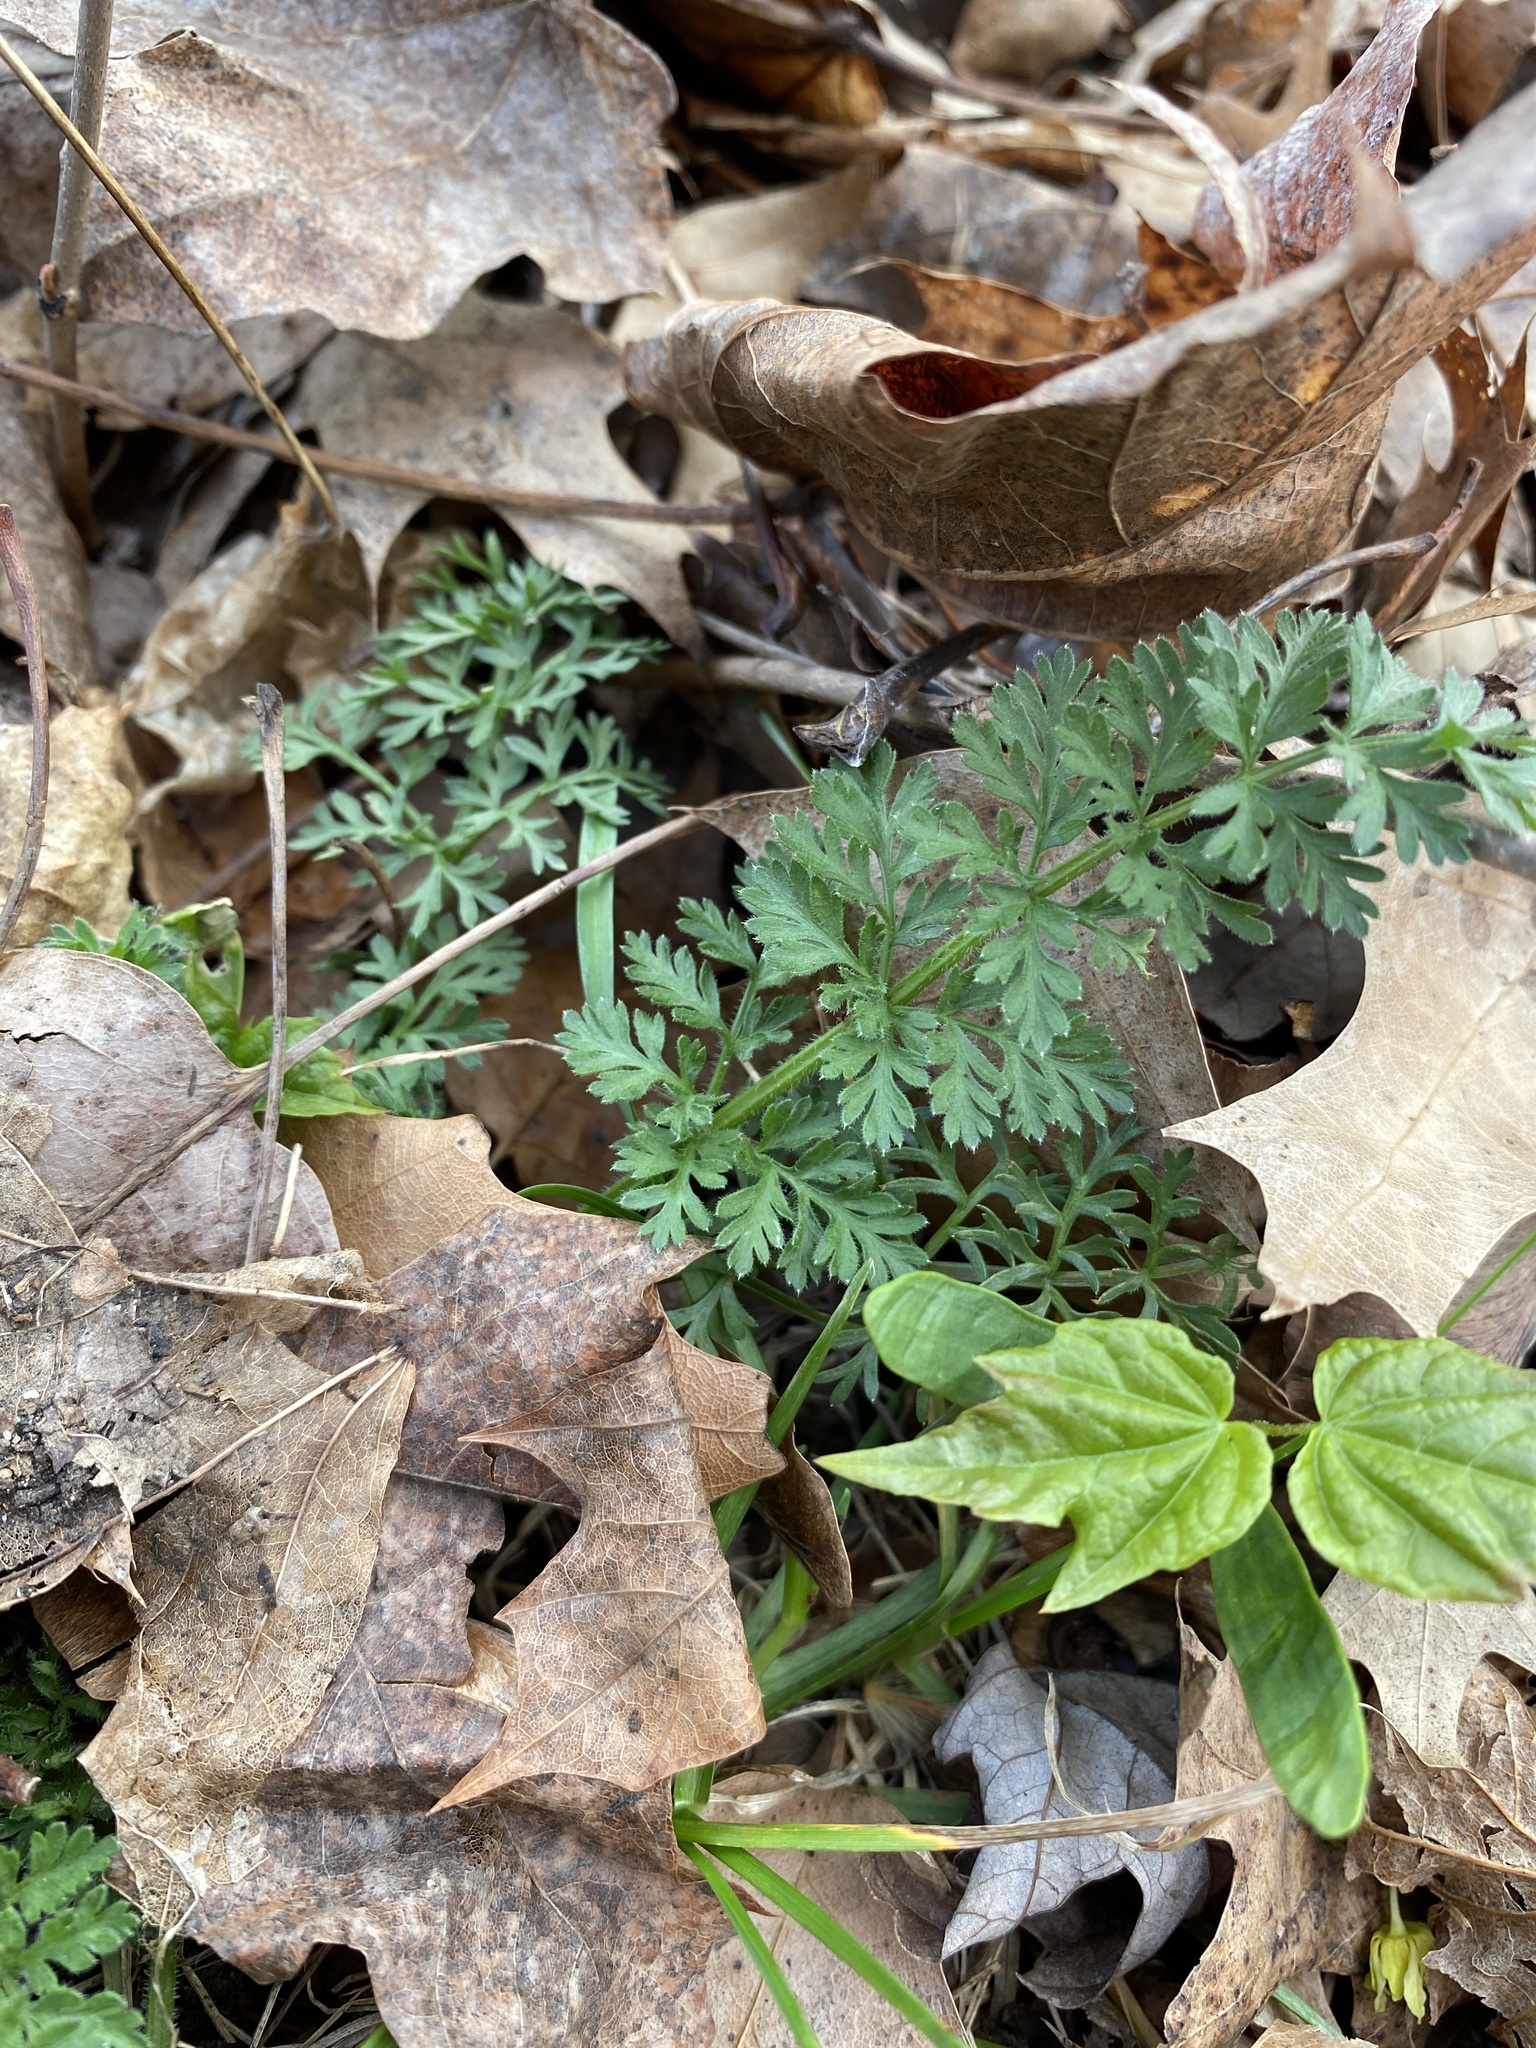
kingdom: Plantae
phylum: Tracheophyta
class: Magnoliopsida
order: Apiales
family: Apiaceae
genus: Daucus
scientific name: Daucus carota
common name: Wild carrot
